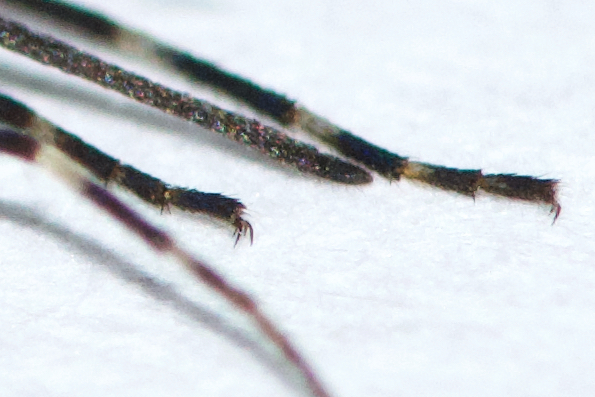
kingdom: Animalia
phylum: Arthropoda
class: Insecta
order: Diptera
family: Culicidae
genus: Aedes
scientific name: Aedes excrucians
